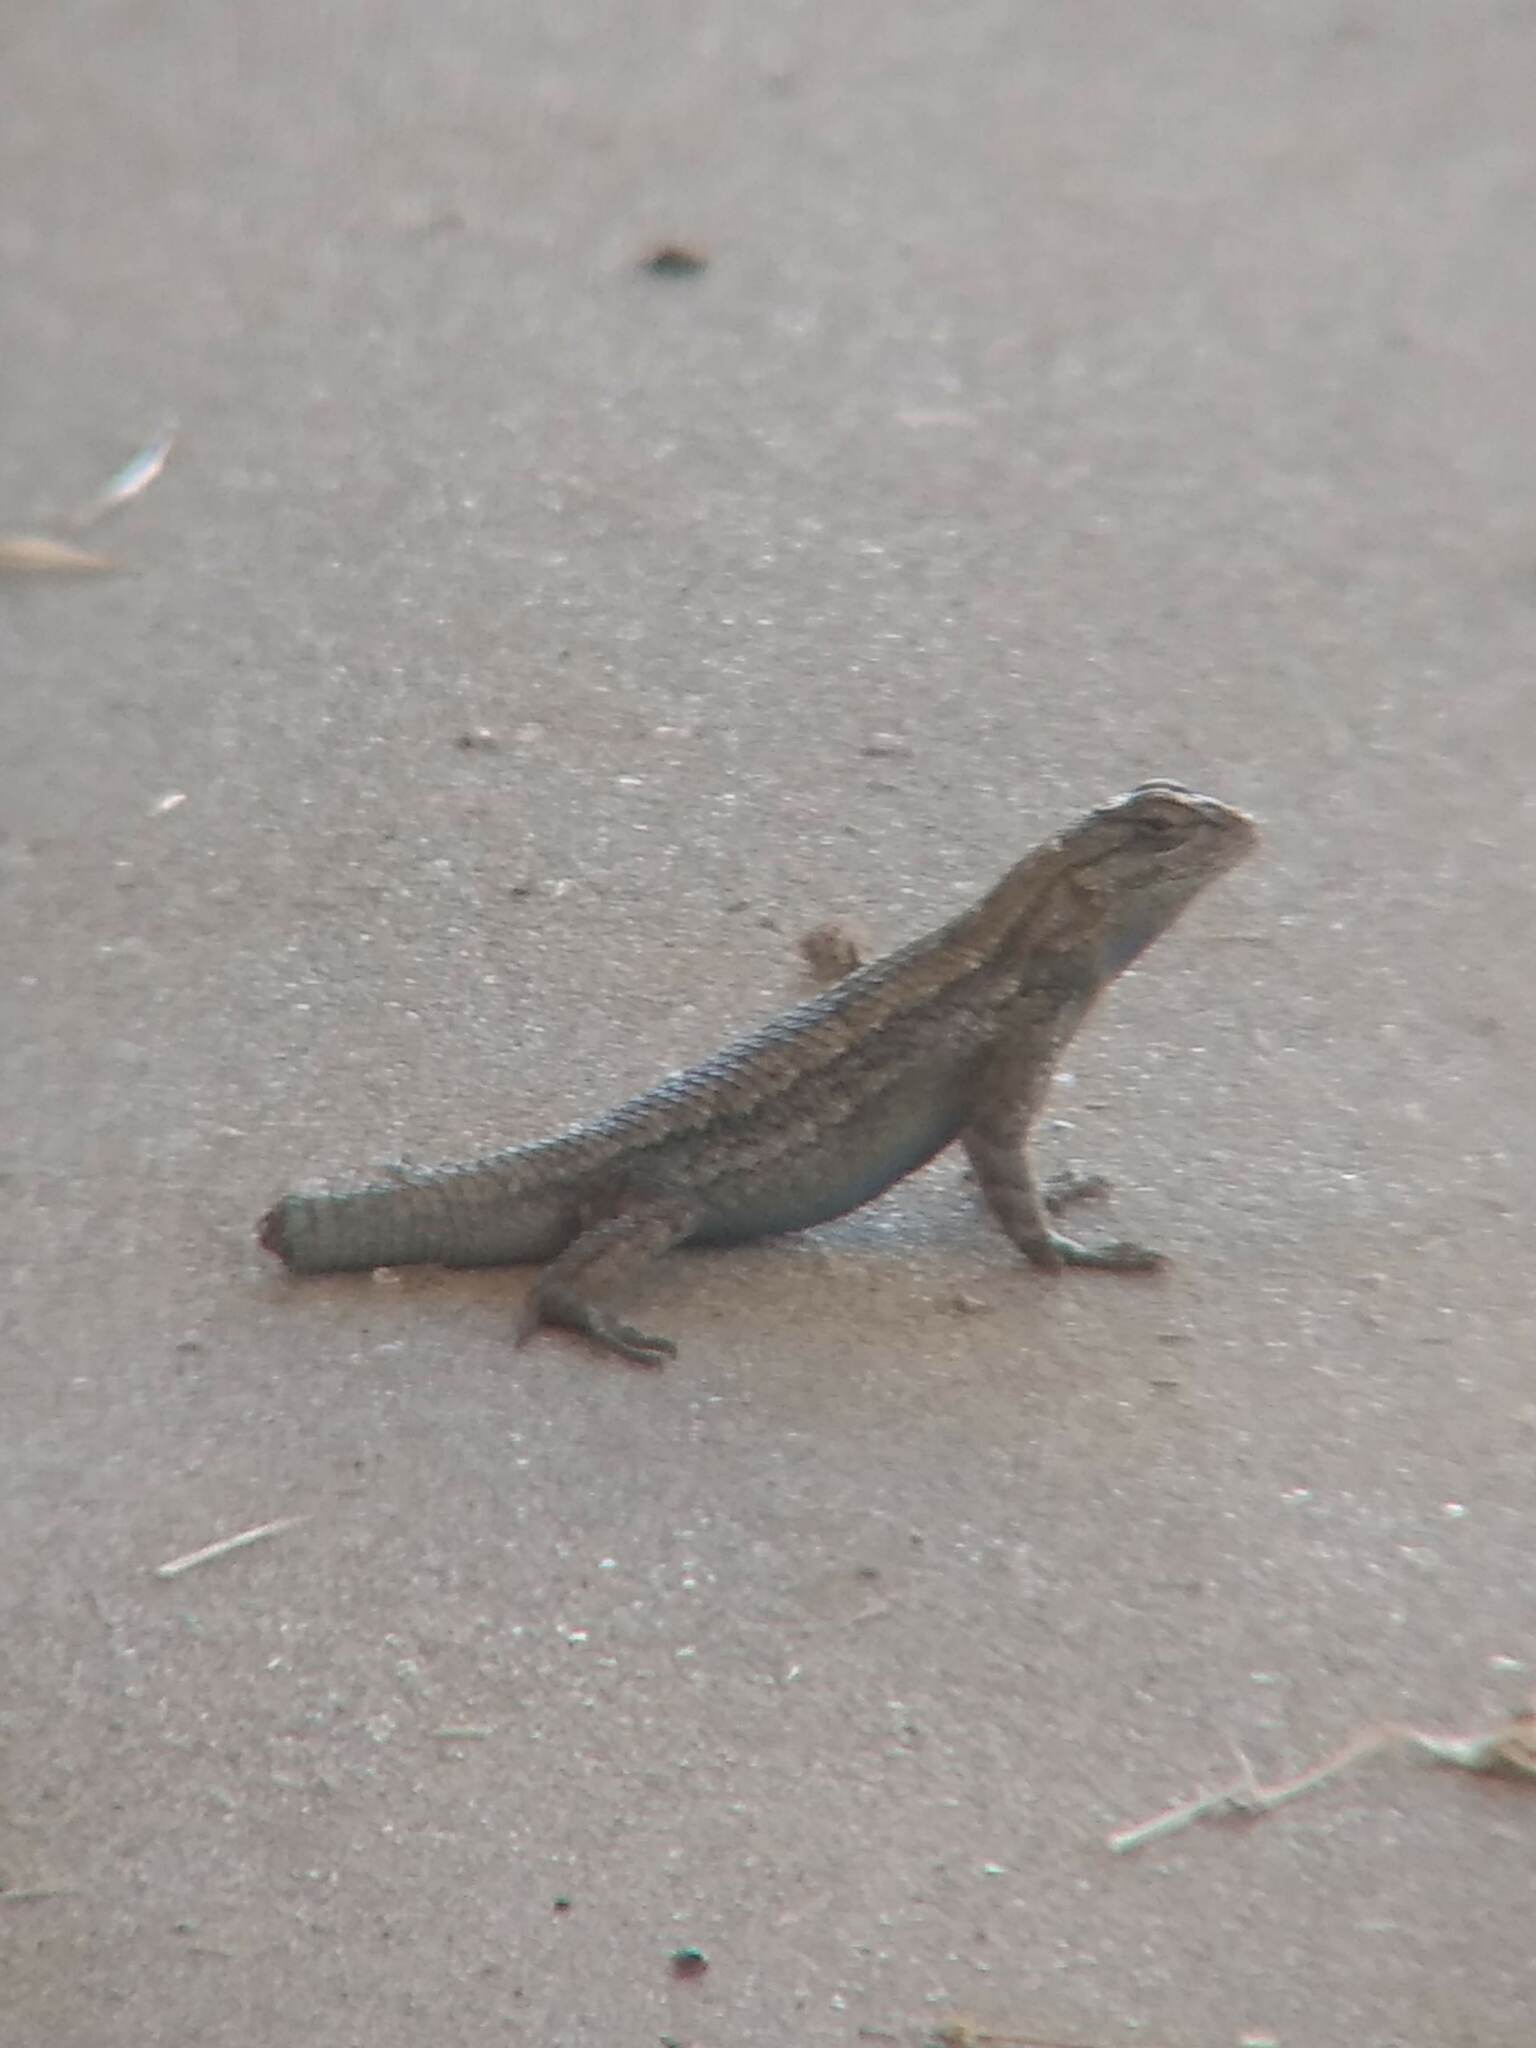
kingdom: Animalia
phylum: Chordata
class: Squamata
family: Phrynosomatidae
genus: Sceloporus
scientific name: Sceloporus occidentalis
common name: Western fence lizard
